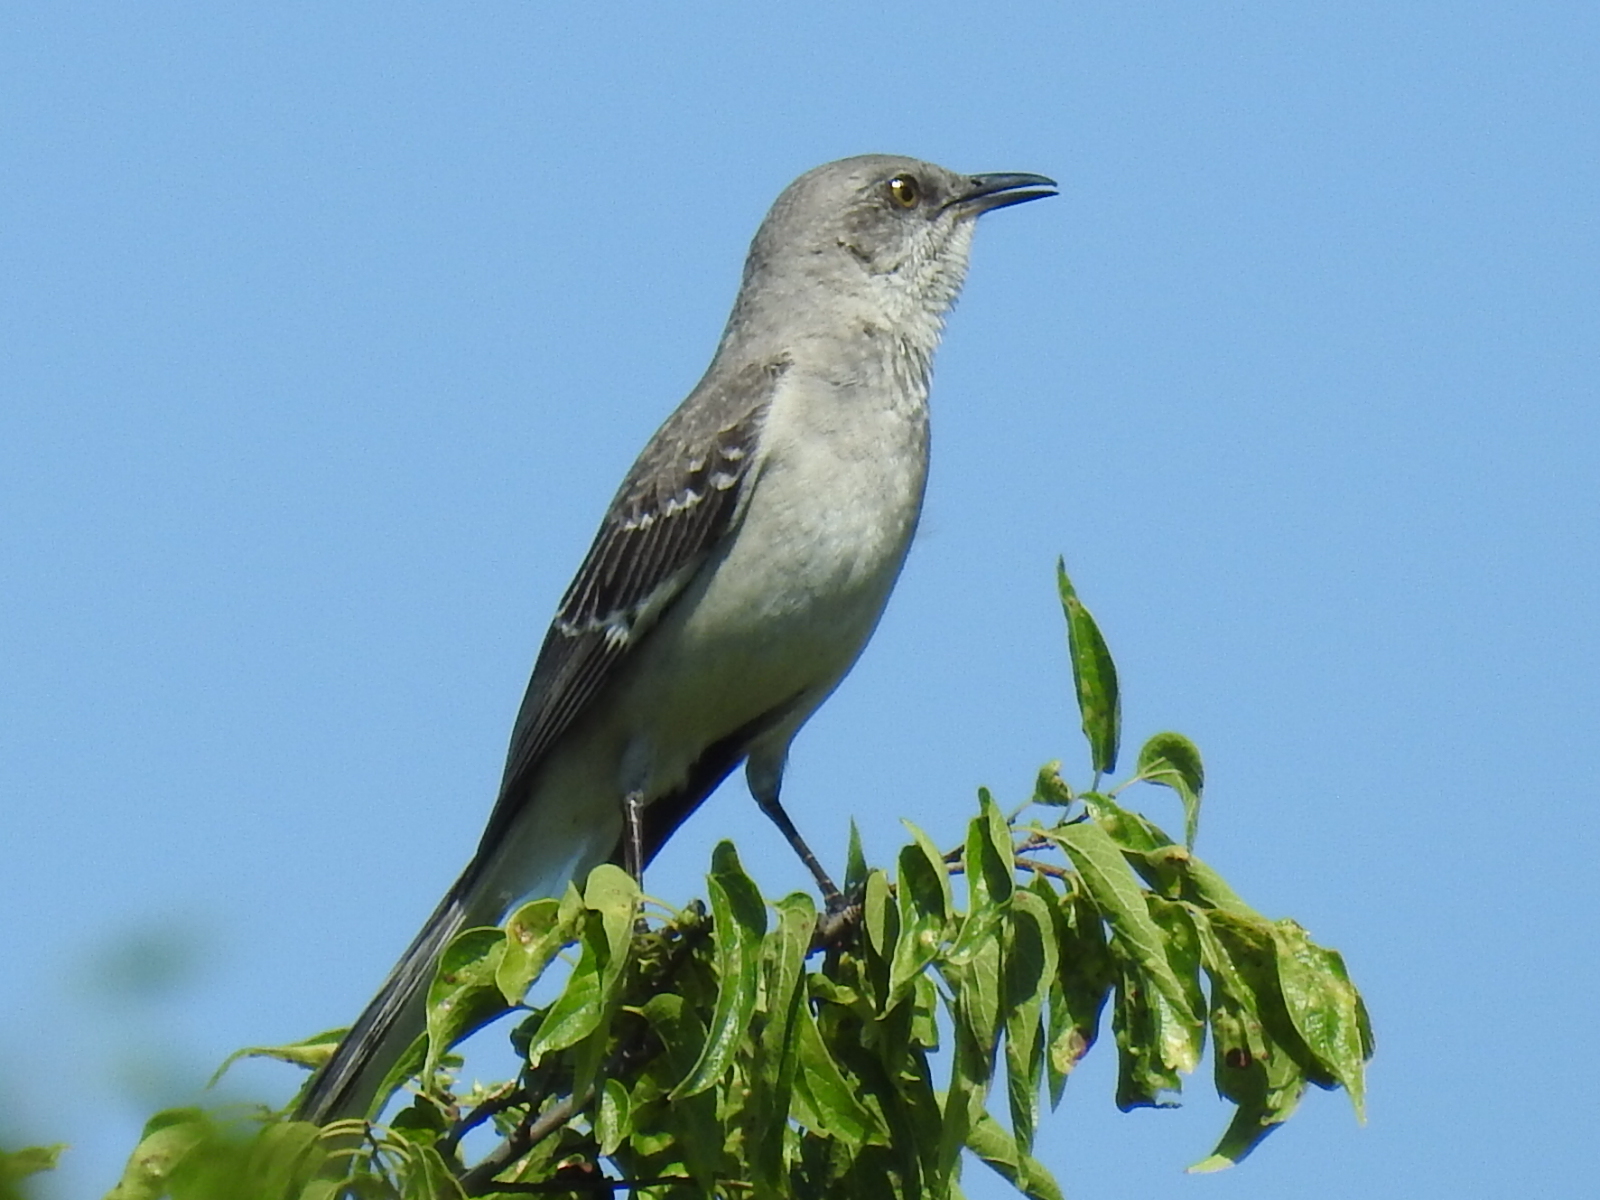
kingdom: Animalia
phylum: Chordata
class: Aves
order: Passeriformes
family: Mimidae
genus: Mimus
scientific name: Mimus polyglottos
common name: Northern mockingbird
